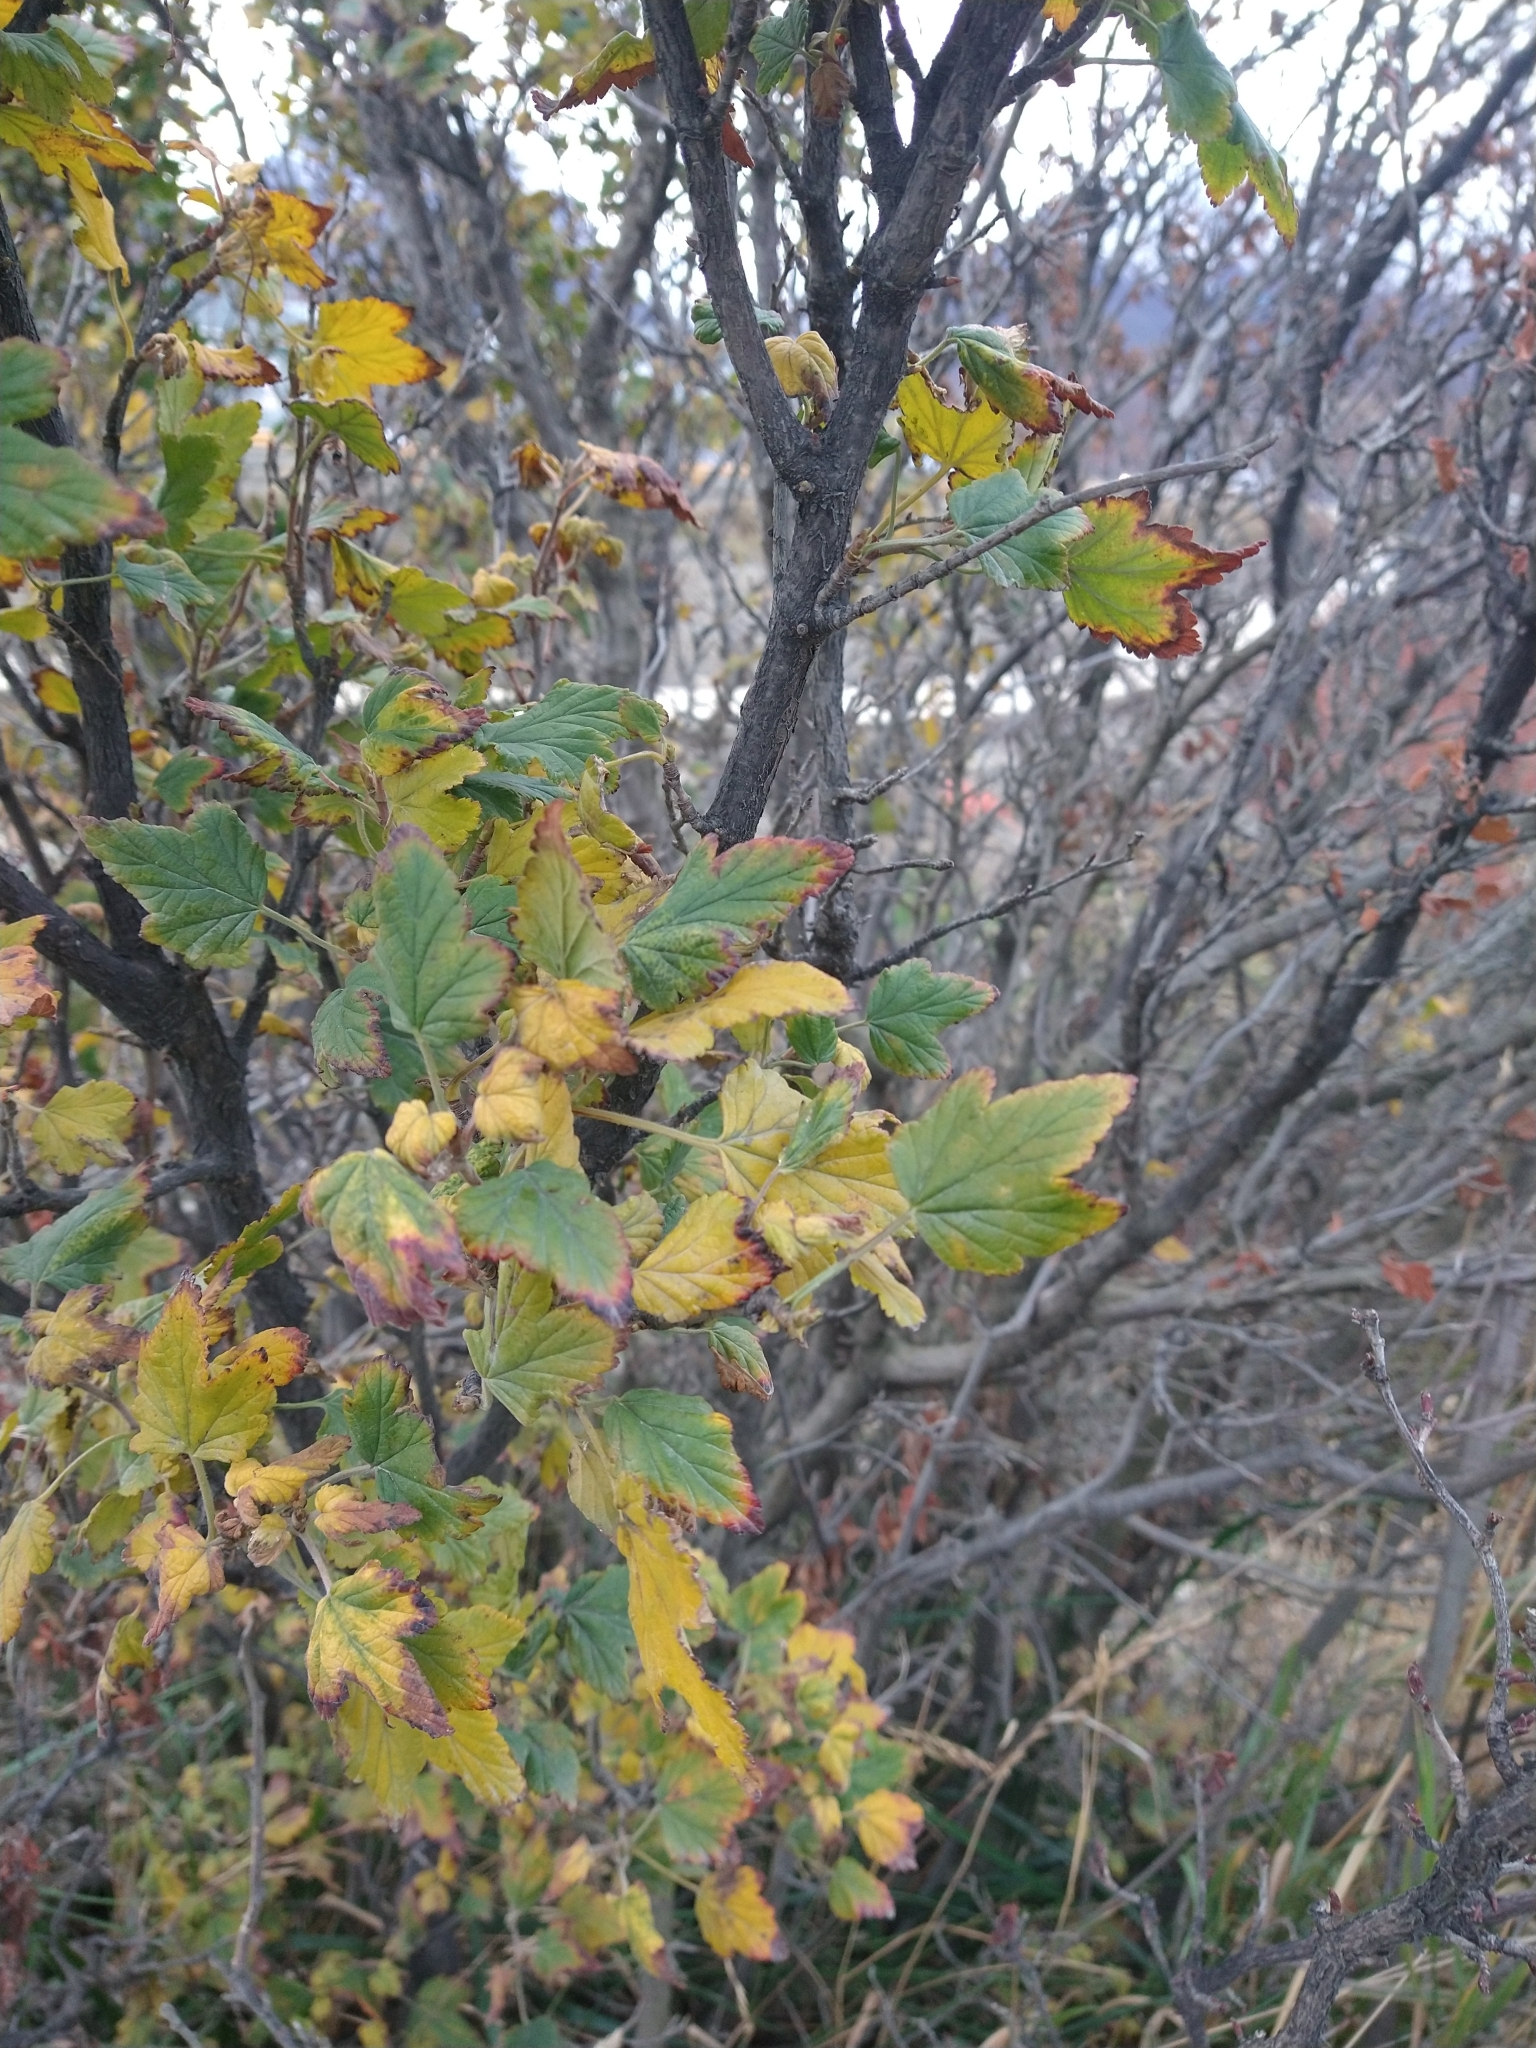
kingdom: Plantae
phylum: Tracheophyta
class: Magnoliopsida
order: Saxifragales
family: Grossulariaceae
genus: Ribes
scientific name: Ribes magellanicum
